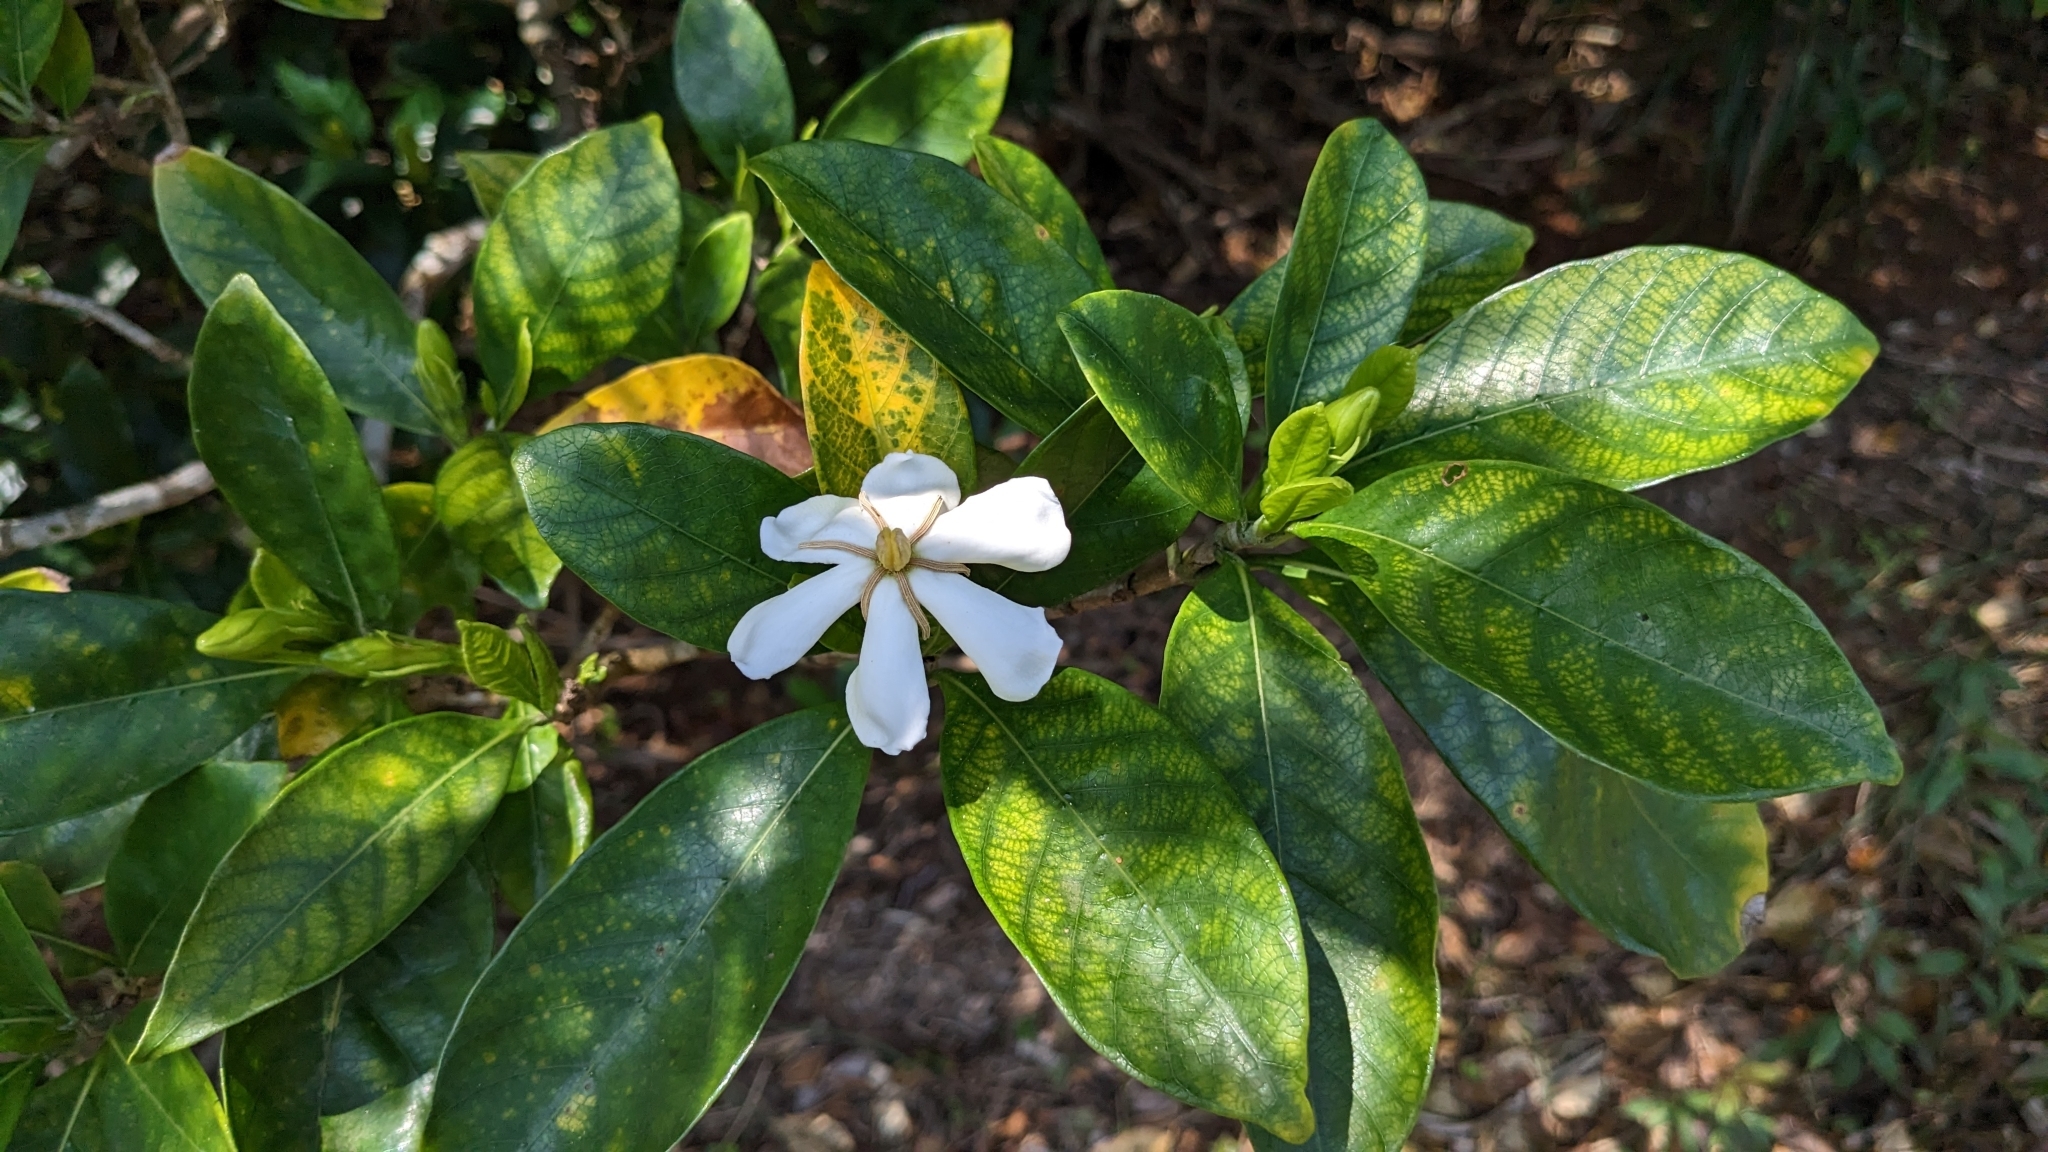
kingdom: Plantae
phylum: Tracheophyta
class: Magnoliopsida
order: Gentianales
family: Rubiaceae
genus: Gardenia
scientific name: Gardenia jasminoides
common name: Cape-jasmine
